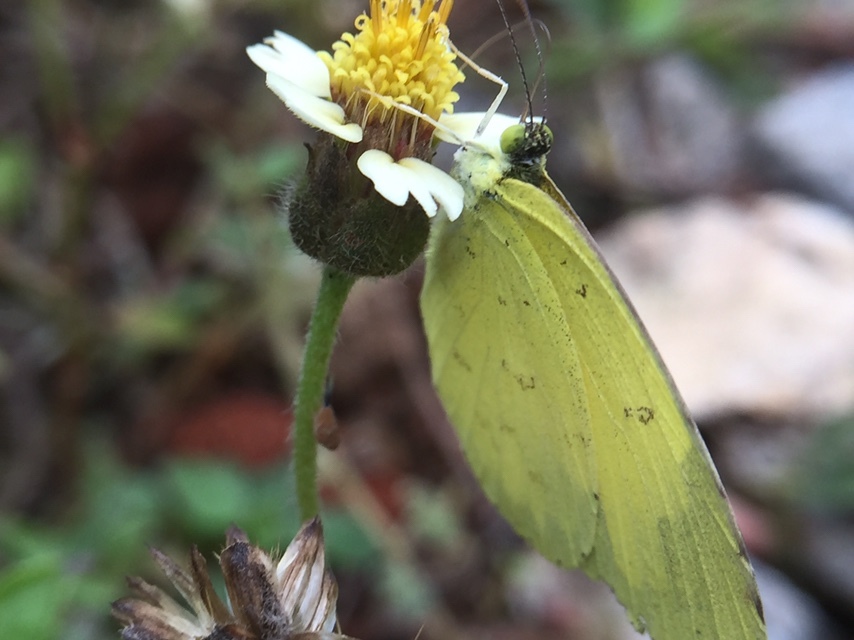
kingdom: Animalia
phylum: Arthropoda
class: Insecta
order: Lepidoptera
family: Pieridae
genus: Eurema
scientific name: Eurema hecabe
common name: Pale grass yellow
